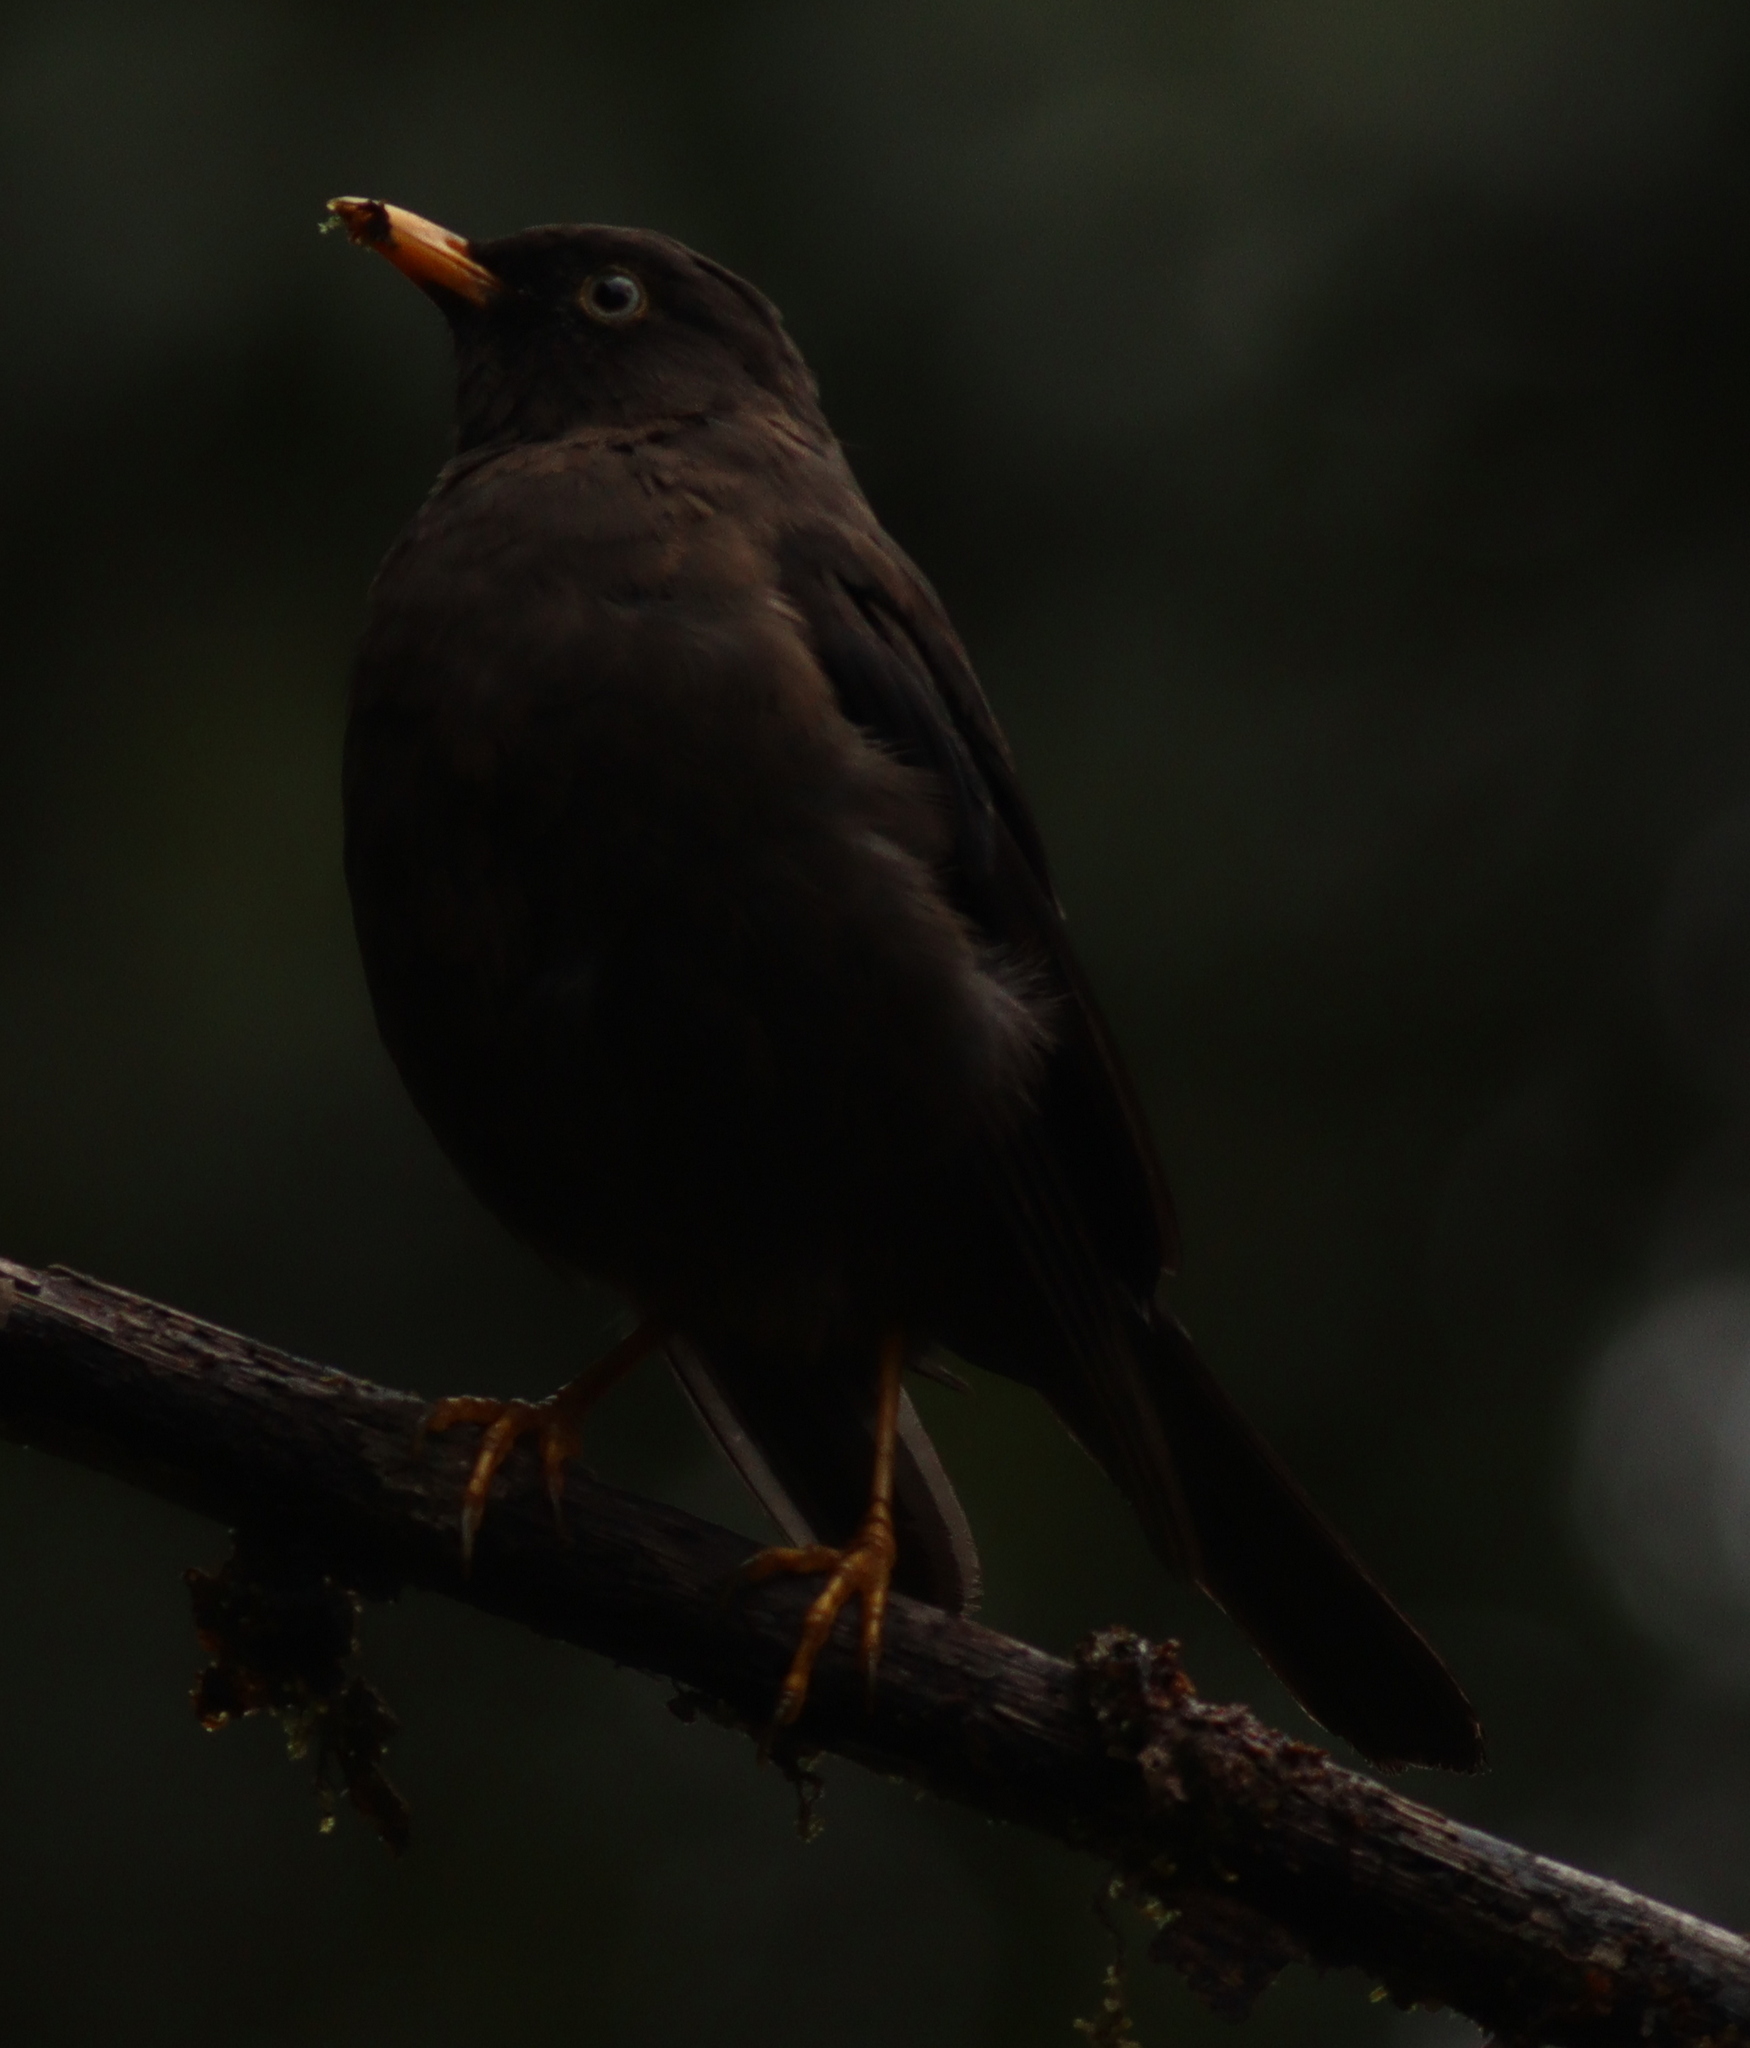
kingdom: Animalia
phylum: Chordata
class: Aves
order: Passeriformes
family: Turdidae
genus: Turdus
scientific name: Turdus nigrescens
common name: Sooty thrush
